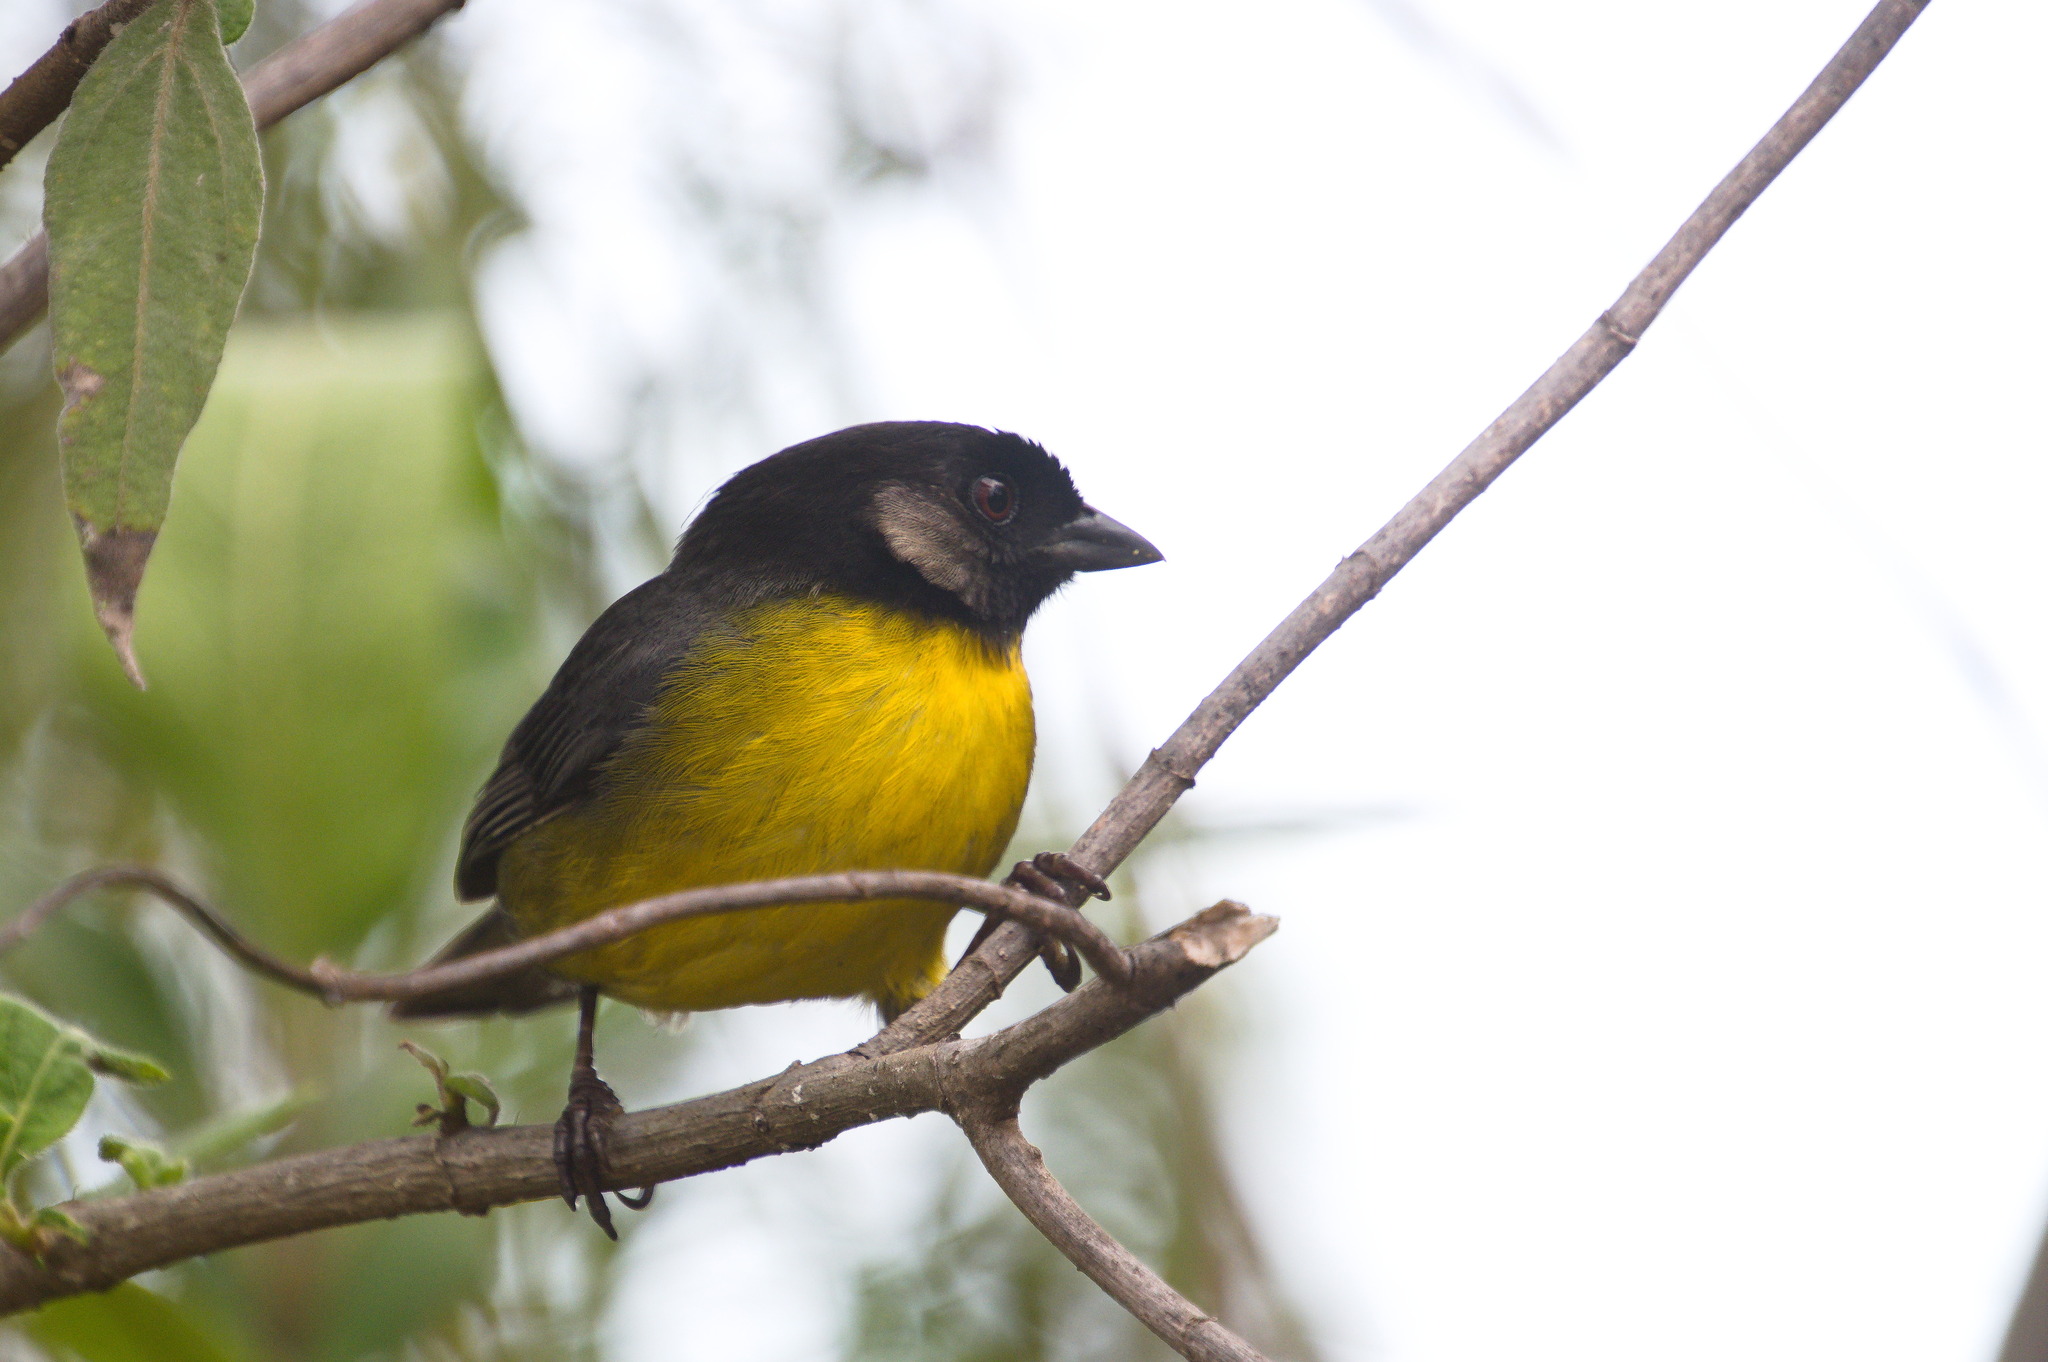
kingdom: Animalia
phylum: Chordata
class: Aves
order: Passeriformes
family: Passerellidae
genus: Atlapetes
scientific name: Atlapetes melanocephalus
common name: Santa marta brush-finch
